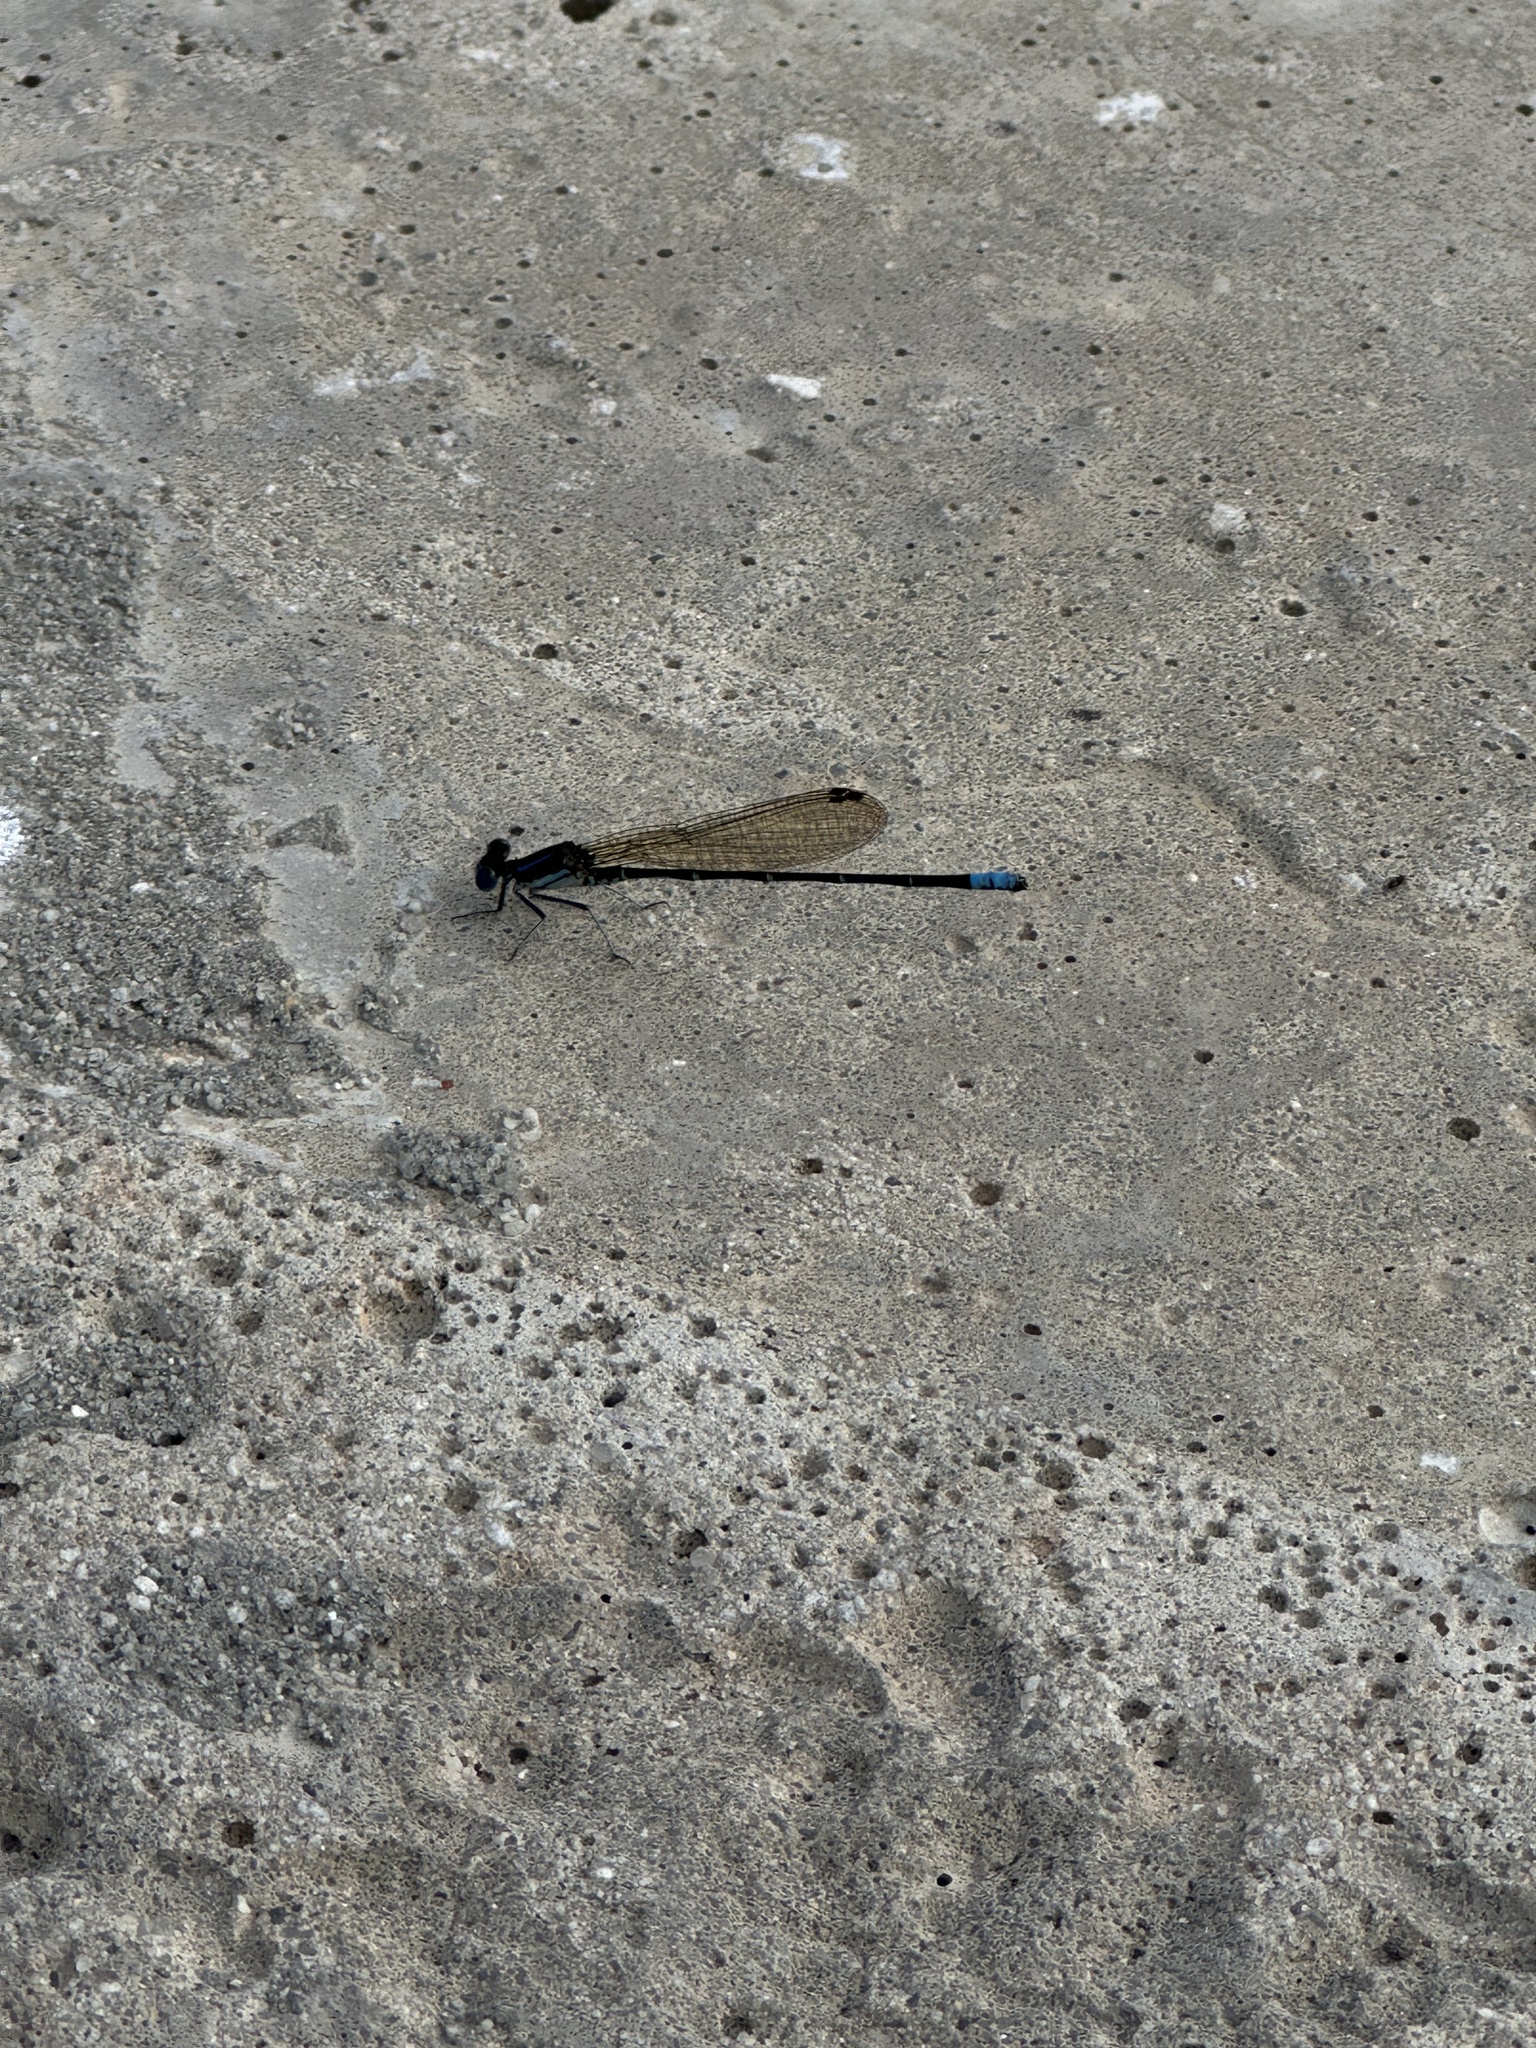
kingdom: Animalia
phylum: Arthropoda
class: Insecta
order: Odonata
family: Coenagrionidae
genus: Argia
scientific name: Argia sedula
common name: Blue-ringed dancer
